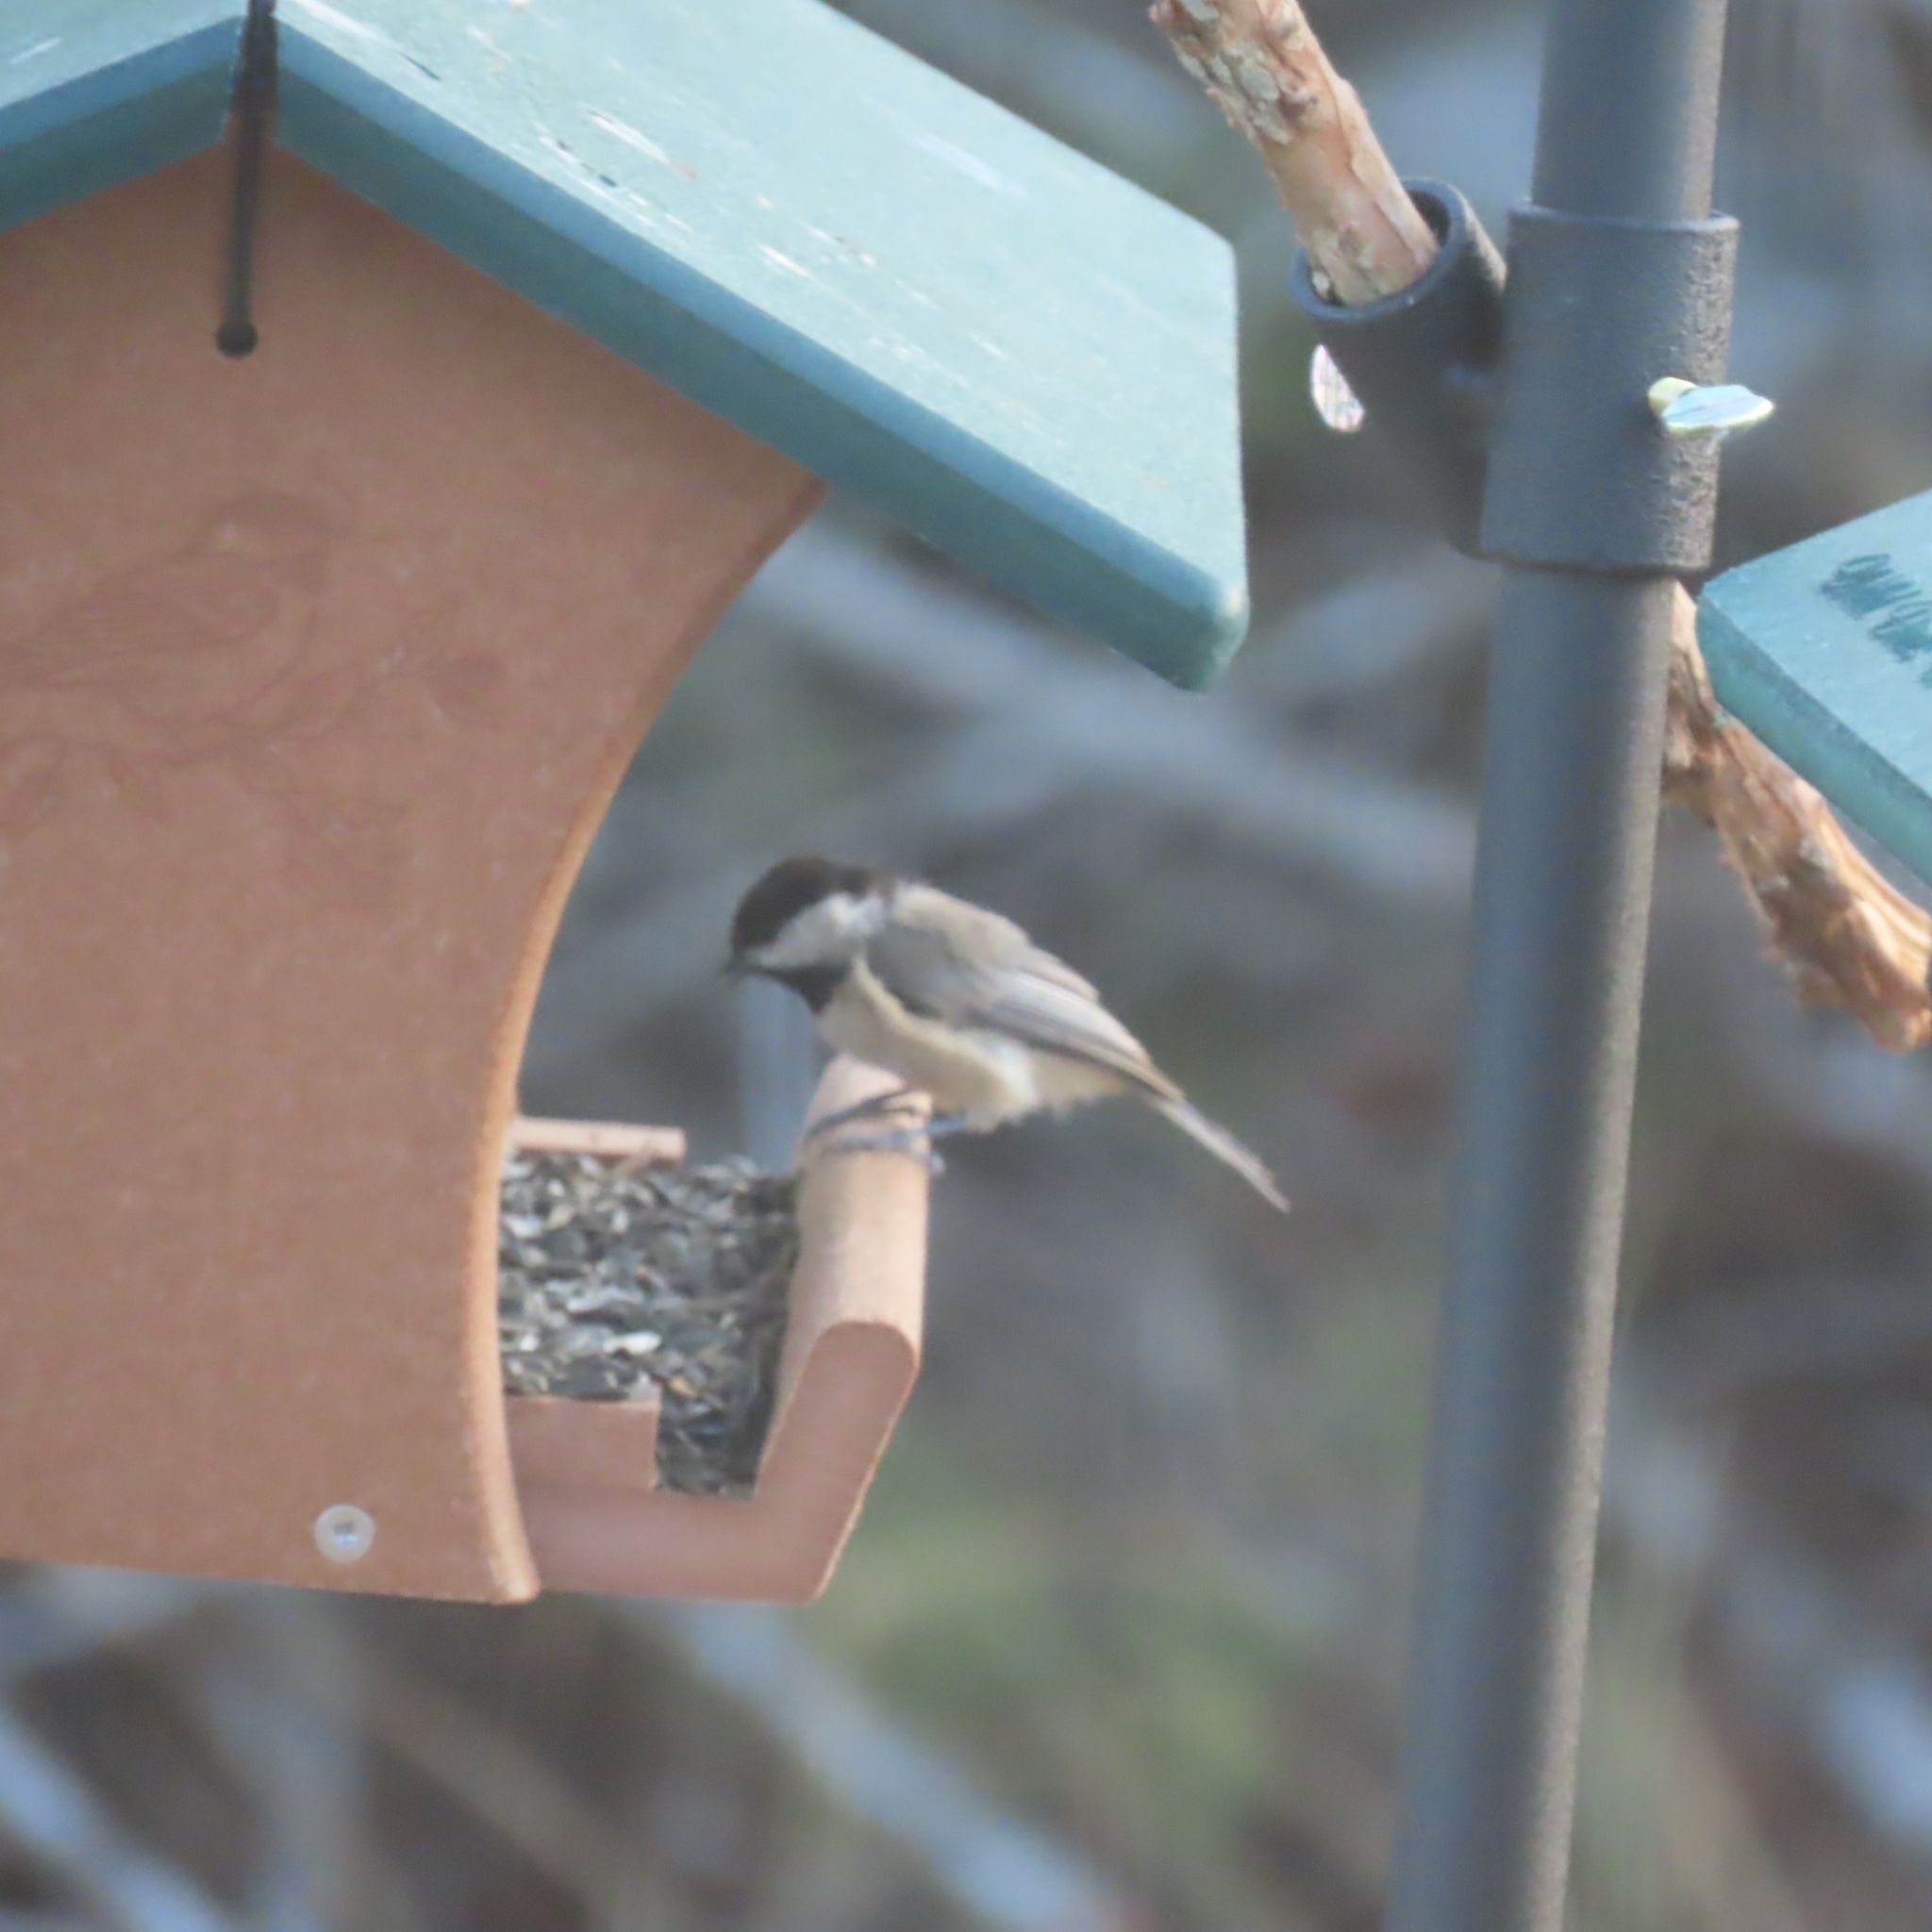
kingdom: Animalia
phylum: Chordata
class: Aves
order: Passeriformes
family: Paridae
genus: Poecile
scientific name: Poecile carolinensis
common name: Carolina chickadee
